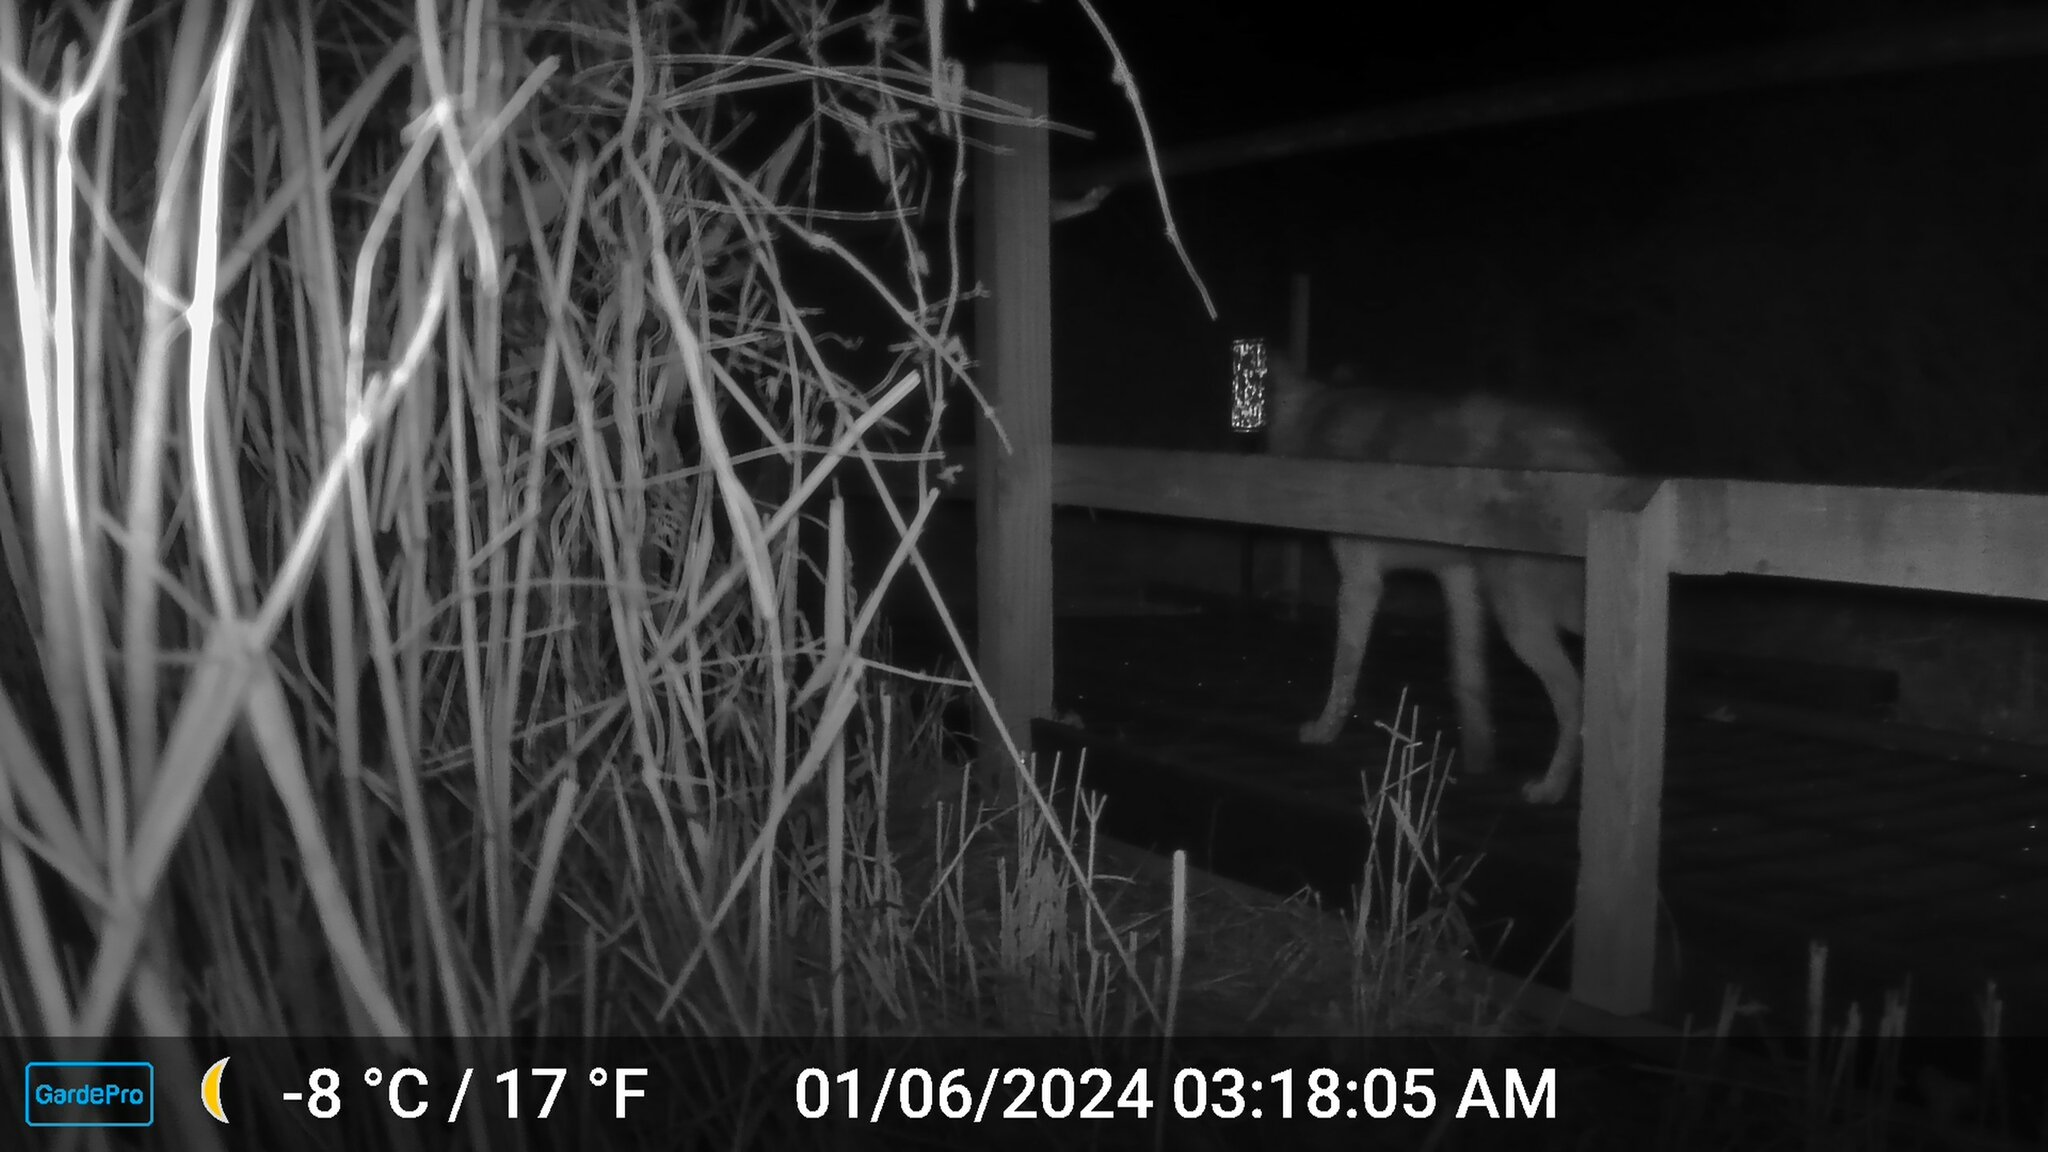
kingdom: Animalia
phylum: Chordata
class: Mammalia
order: Carnivora
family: Canidae
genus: Canis
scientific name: Canis latrans
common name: Coyote
